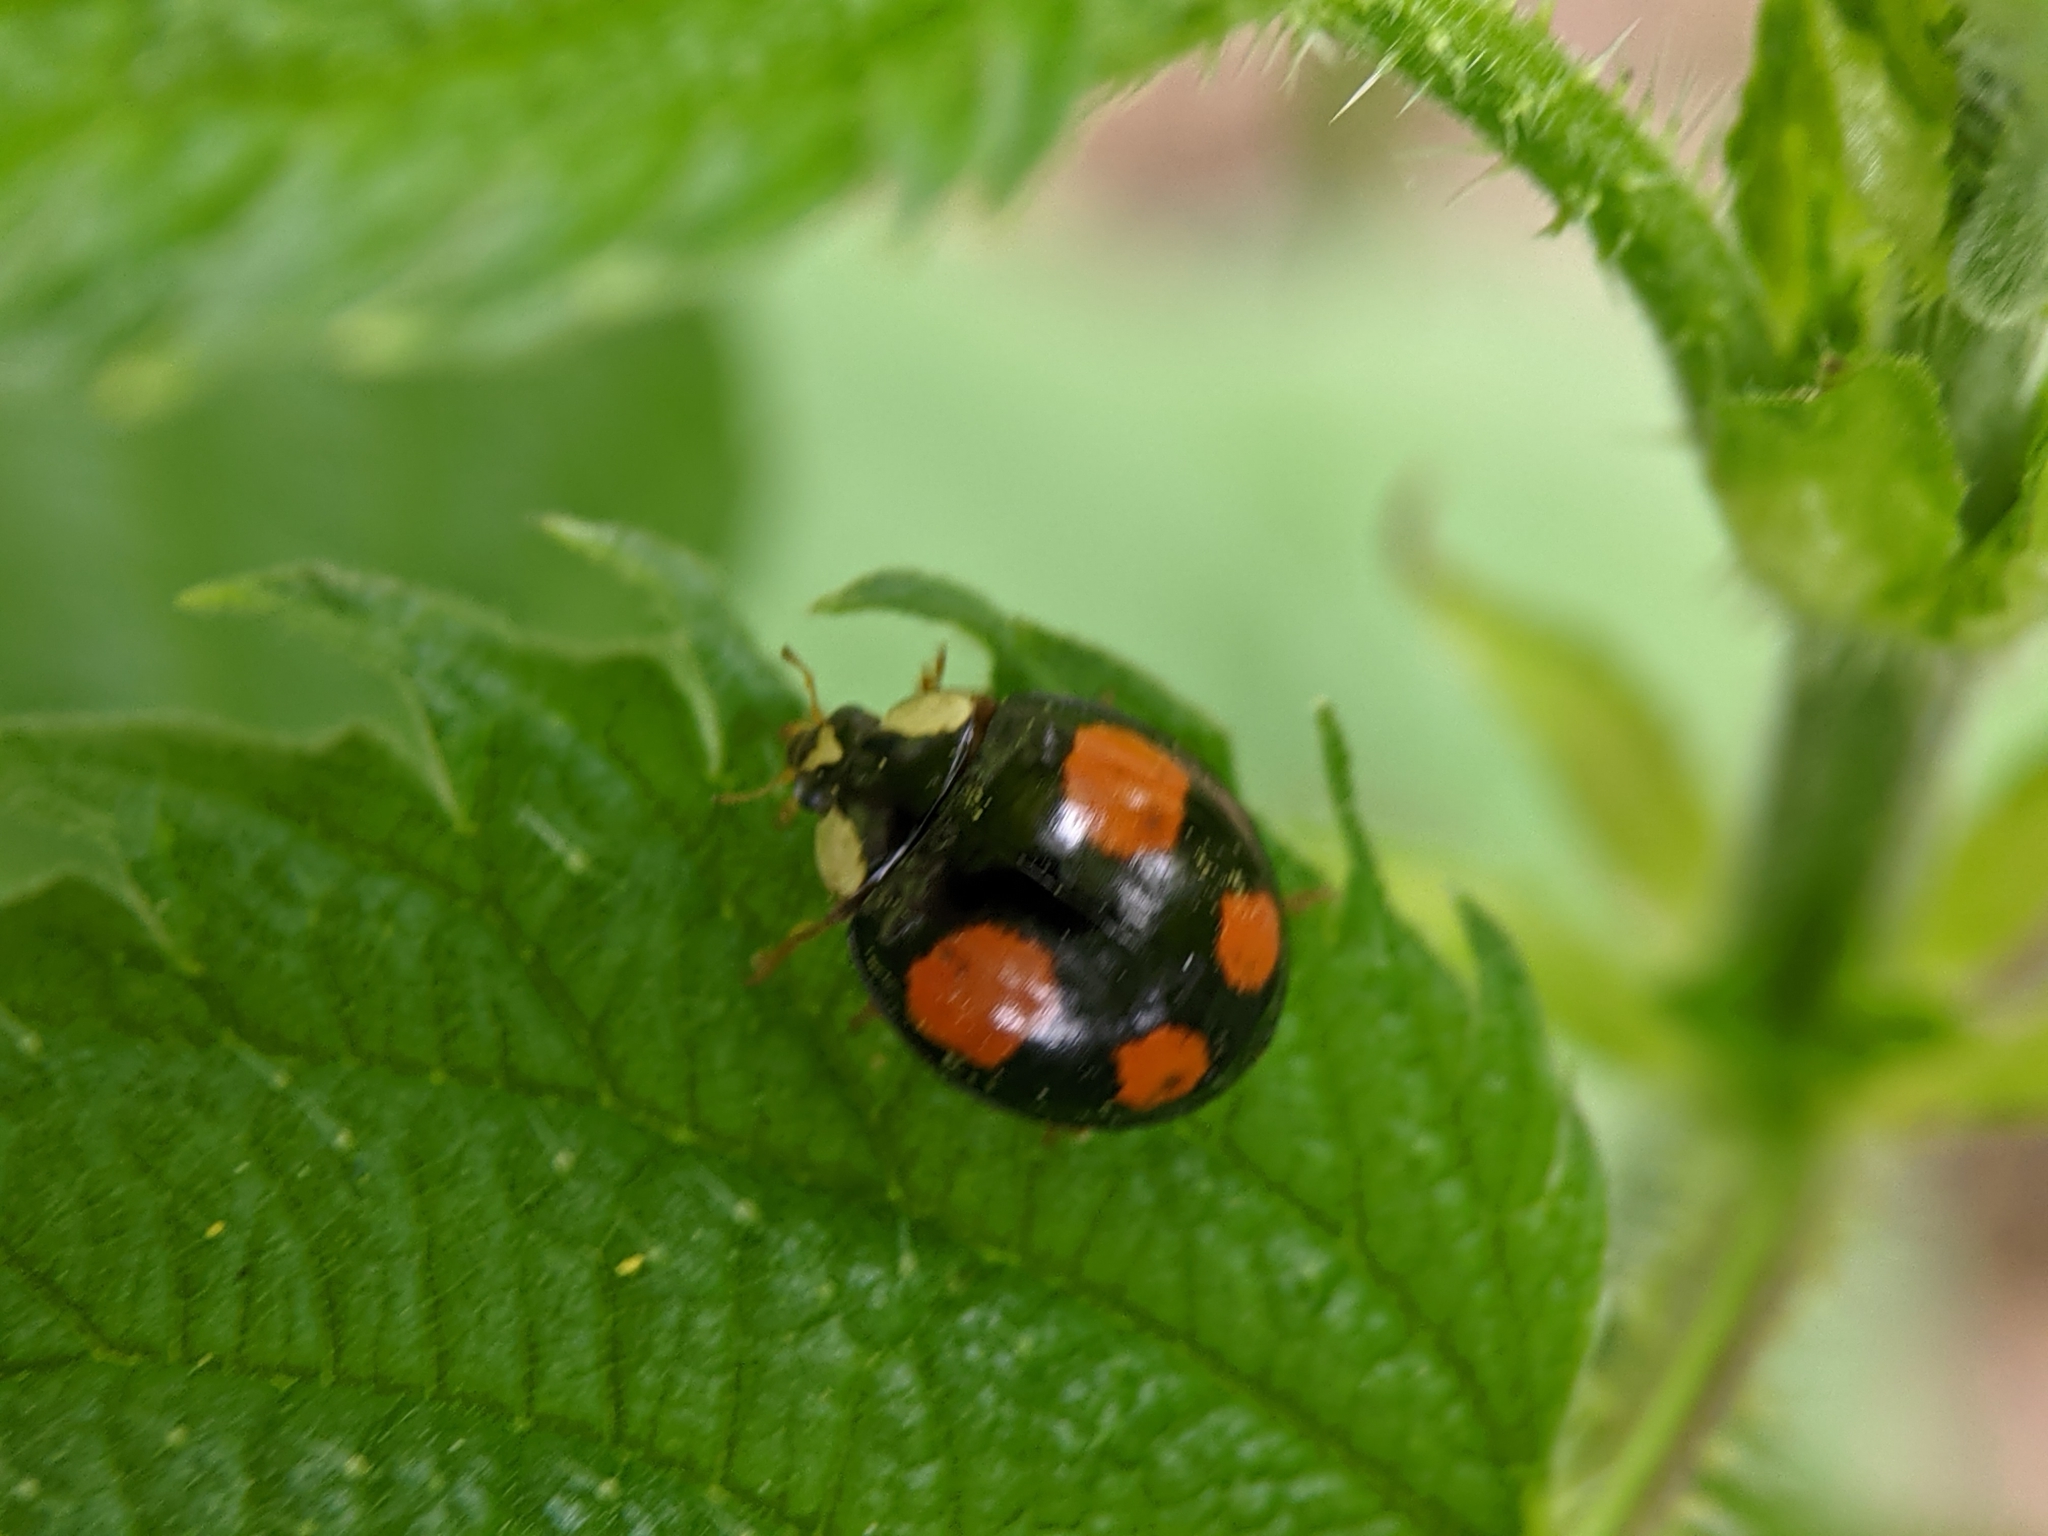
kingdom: Animalia
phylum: Arthropoda
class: Insecta
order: Coleoptera
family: Coccinellidae
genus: Harmonia
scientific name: Harmonia axyridis
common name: Harlequin ladybird
